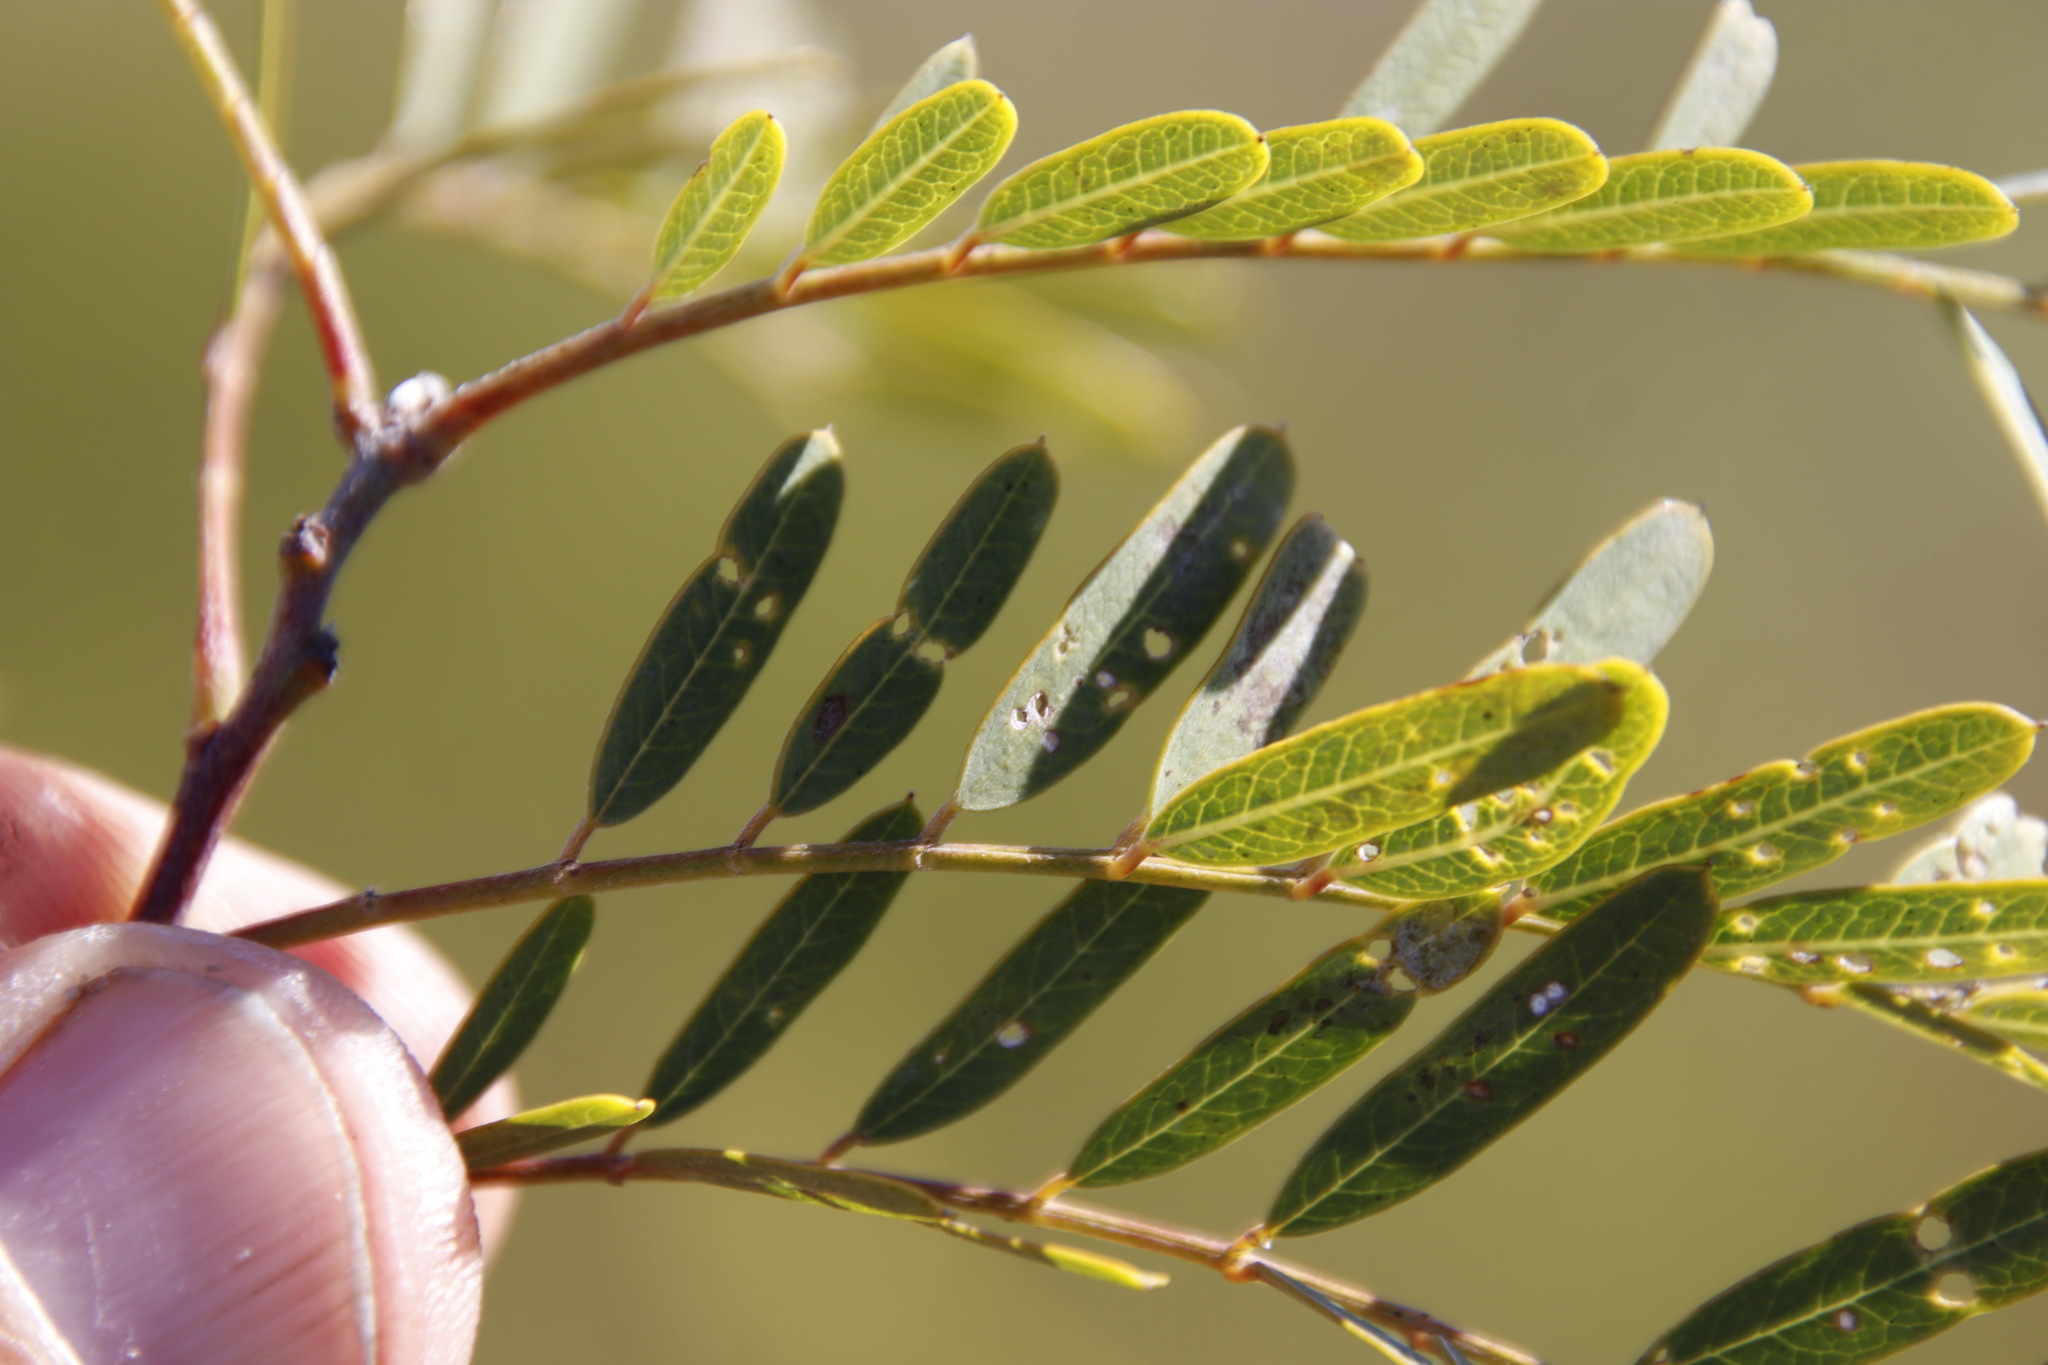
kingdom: Plantae
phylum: Tracheophyta
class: Magnoliopsida
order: Fabales
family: Fabaceae
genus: Sesbania
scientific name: Sesbania punicea
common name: Rattlebox
